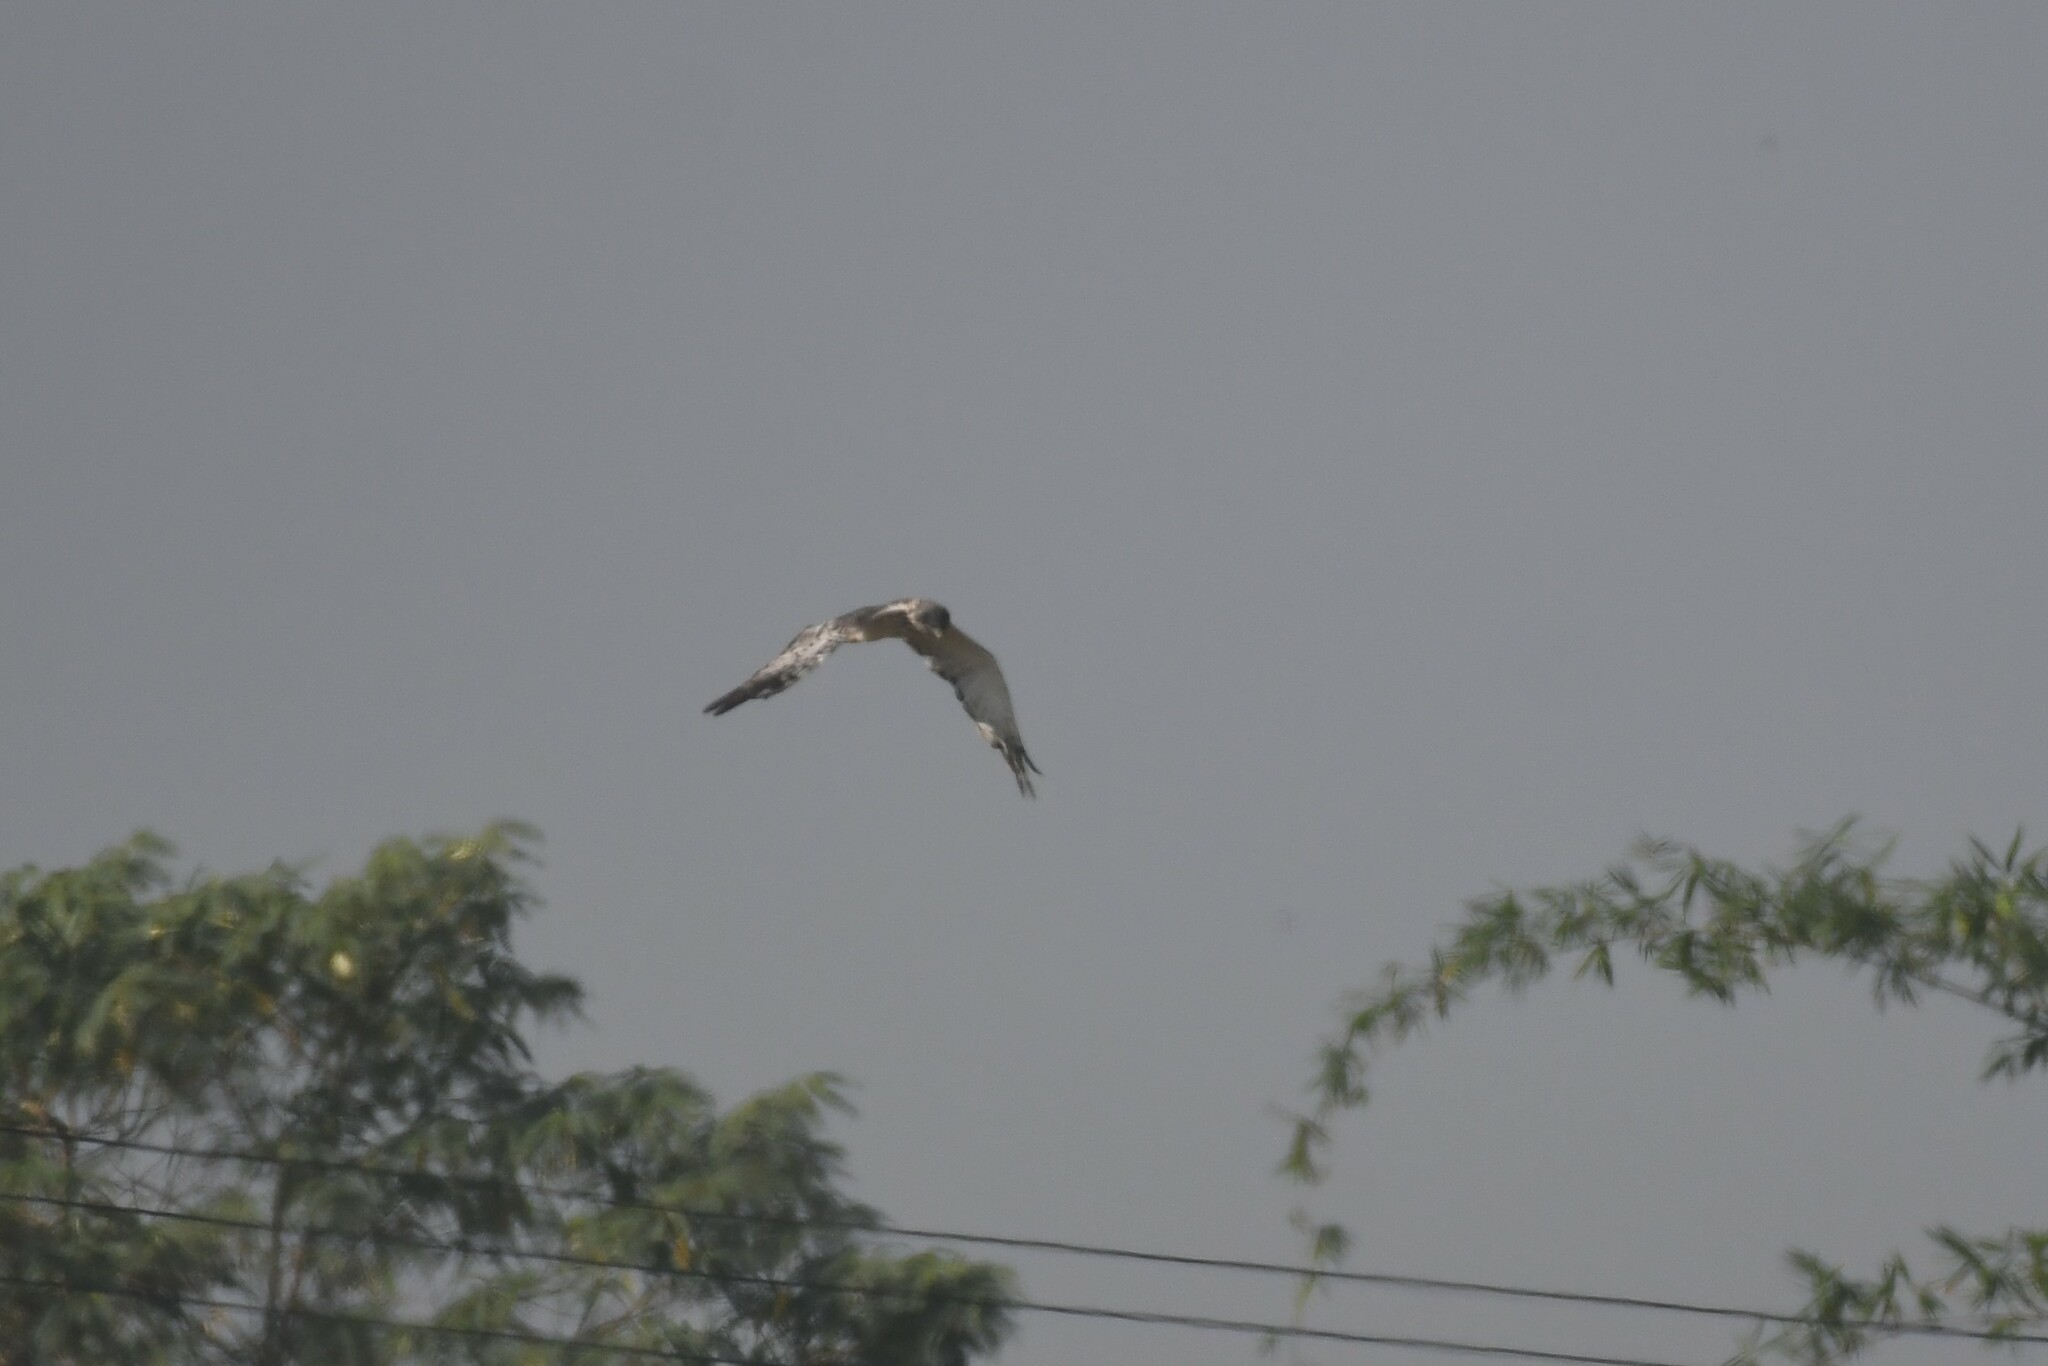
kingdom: Animalia
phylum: Chordata
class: Aves
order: Accipitriformes
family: Accipitridae
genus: Circus
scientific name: Circus spilonotus
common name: Eastern marsh-harrier
